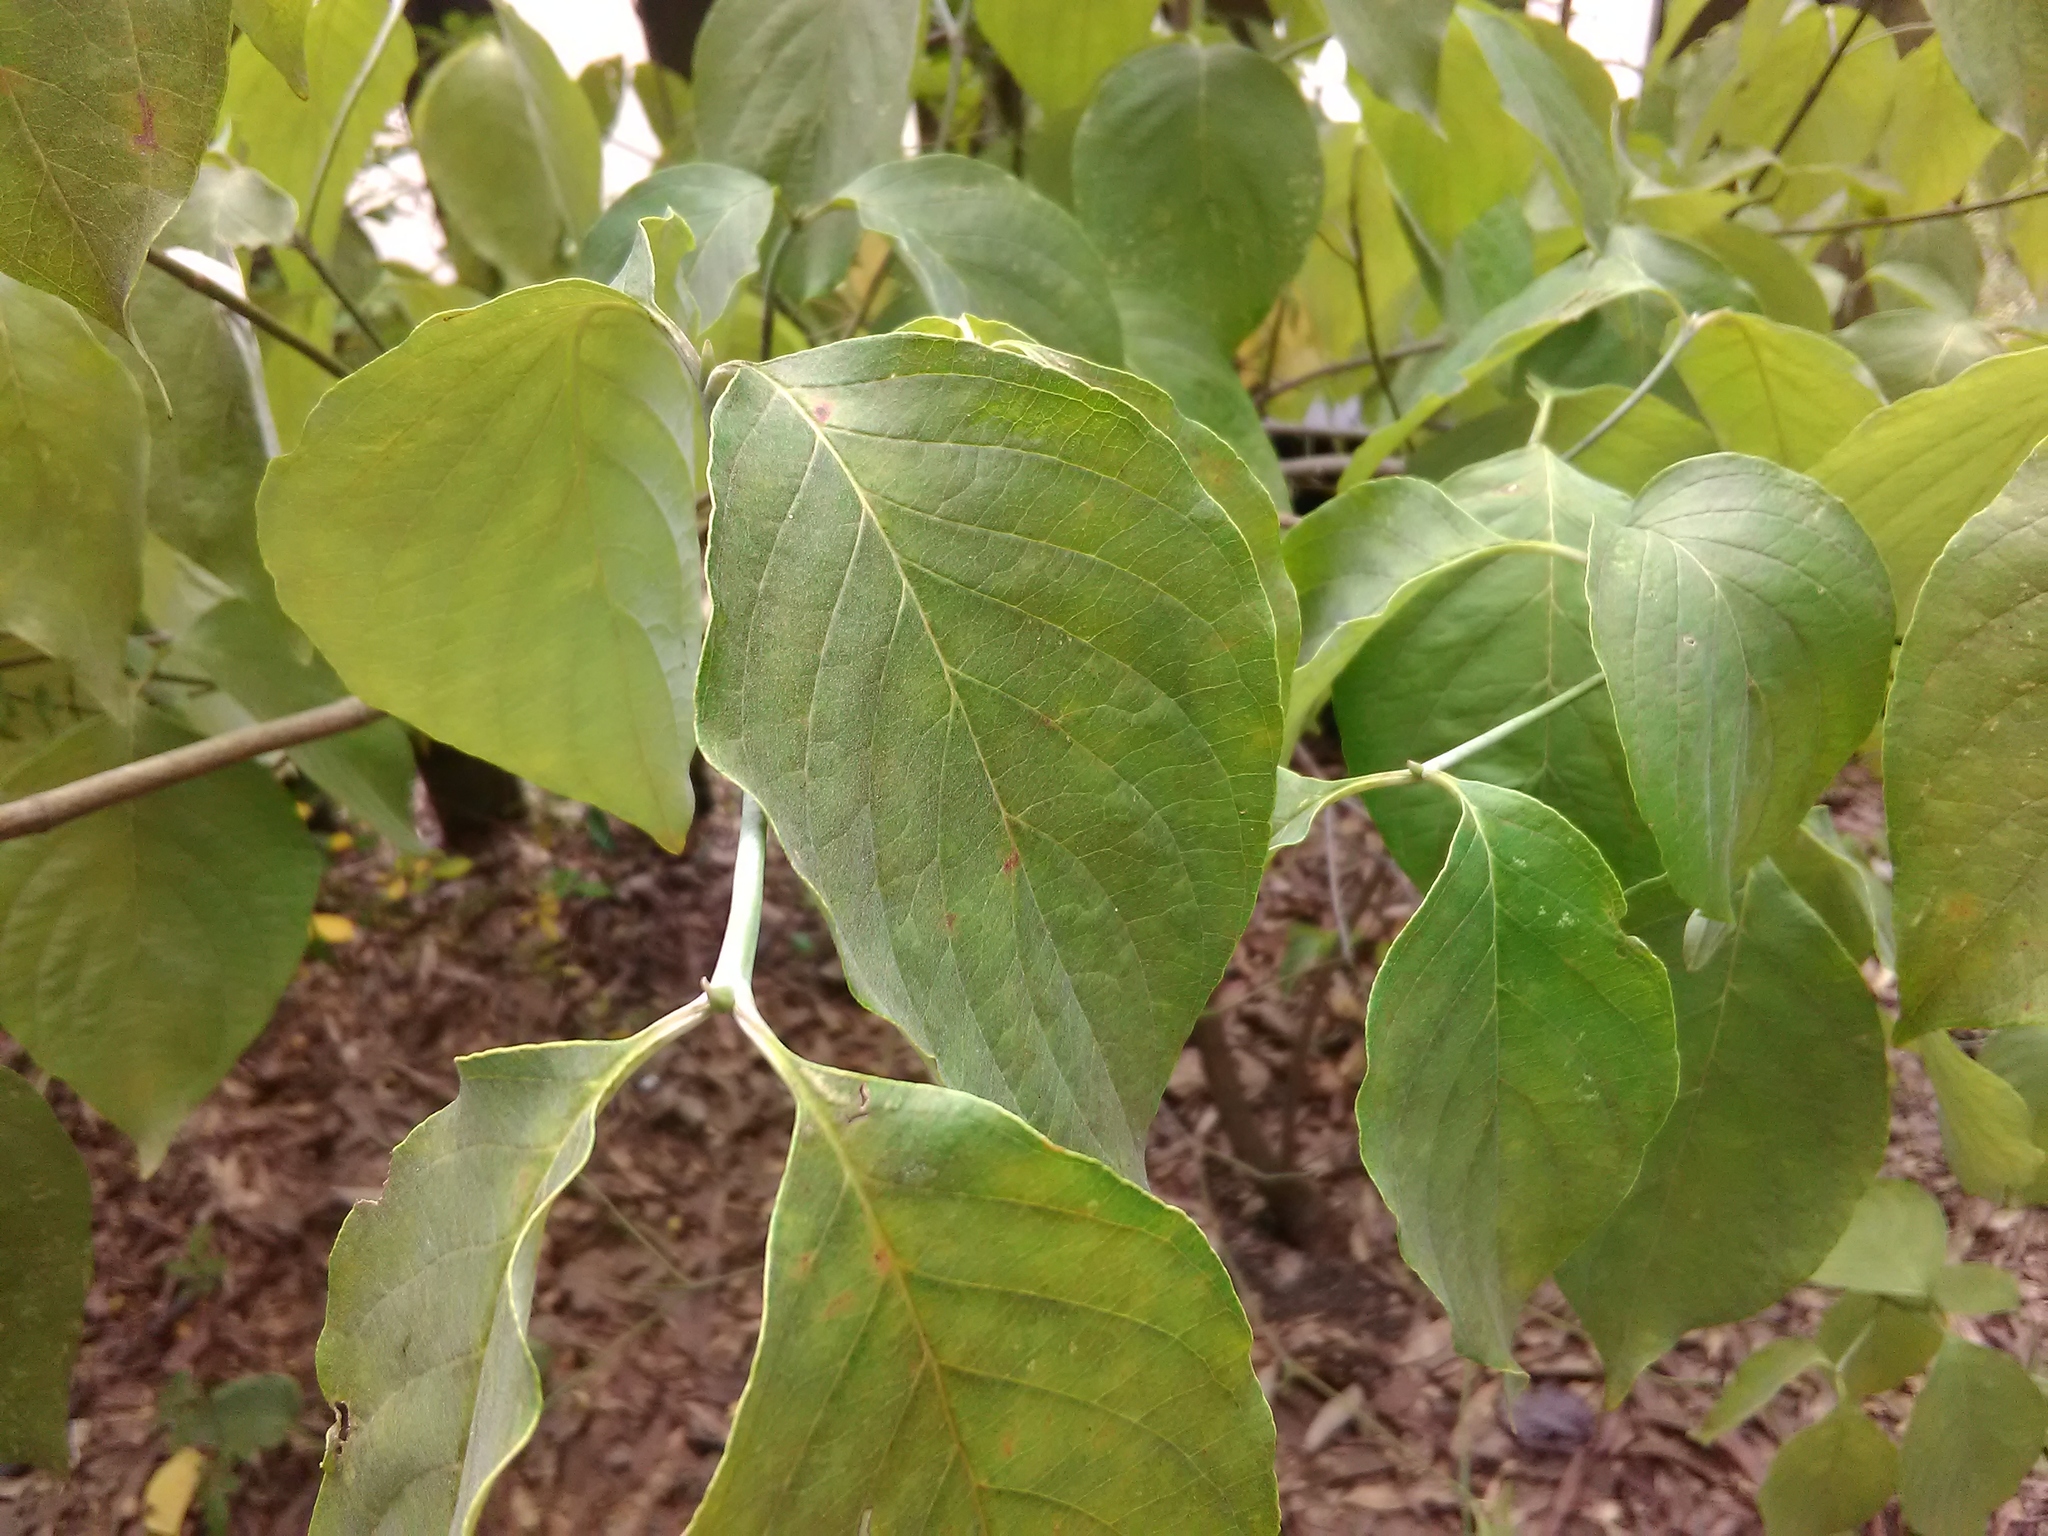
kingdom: Plantae
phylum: Tracheophyta
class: Magnoliopsida
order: Cornales
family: Cornaceae
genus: Cornus
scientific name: Cornus florida
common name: Flowering dogwood
